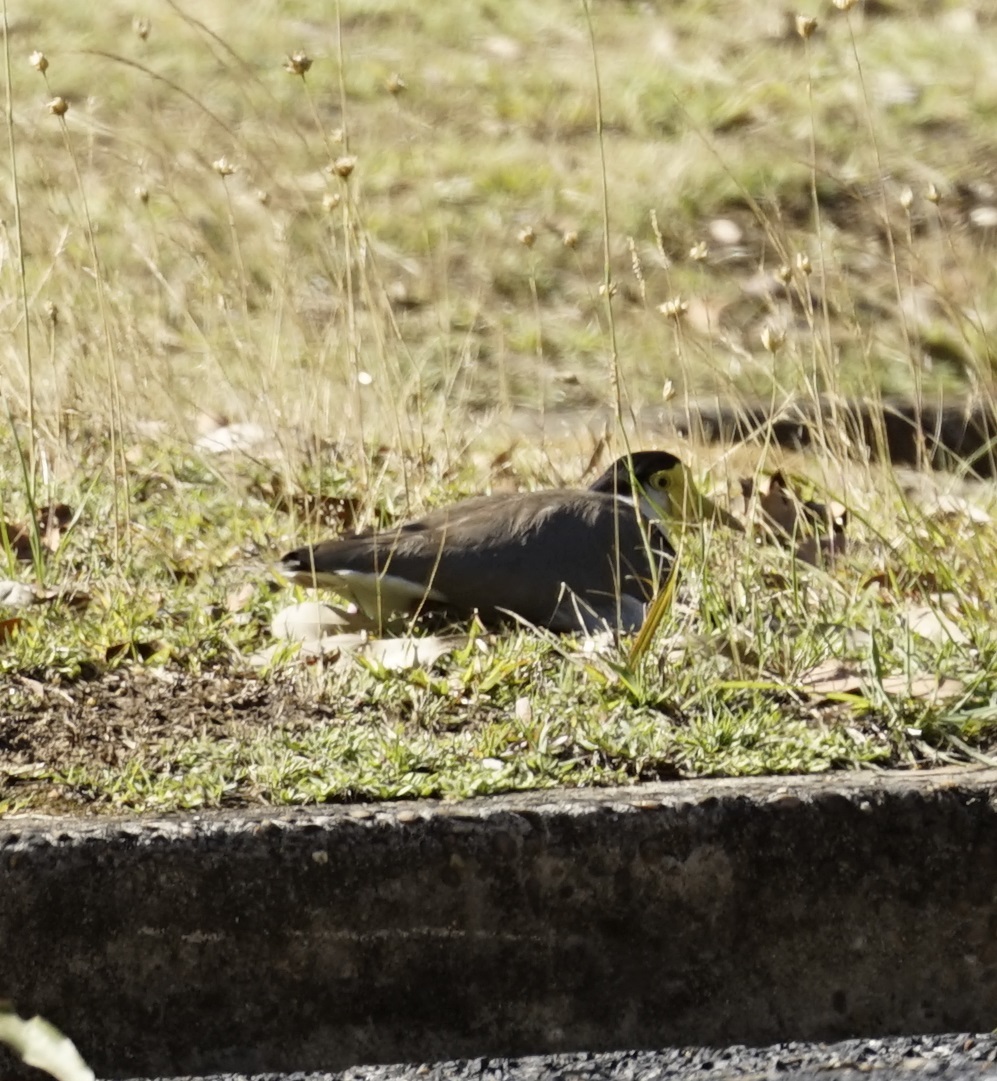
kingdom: Animalia
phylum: Chordata
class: Aves
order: Charadriiformes
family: Charadriidae
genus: Vanellus
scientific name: Vanellus miles
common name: Masked lapwing
